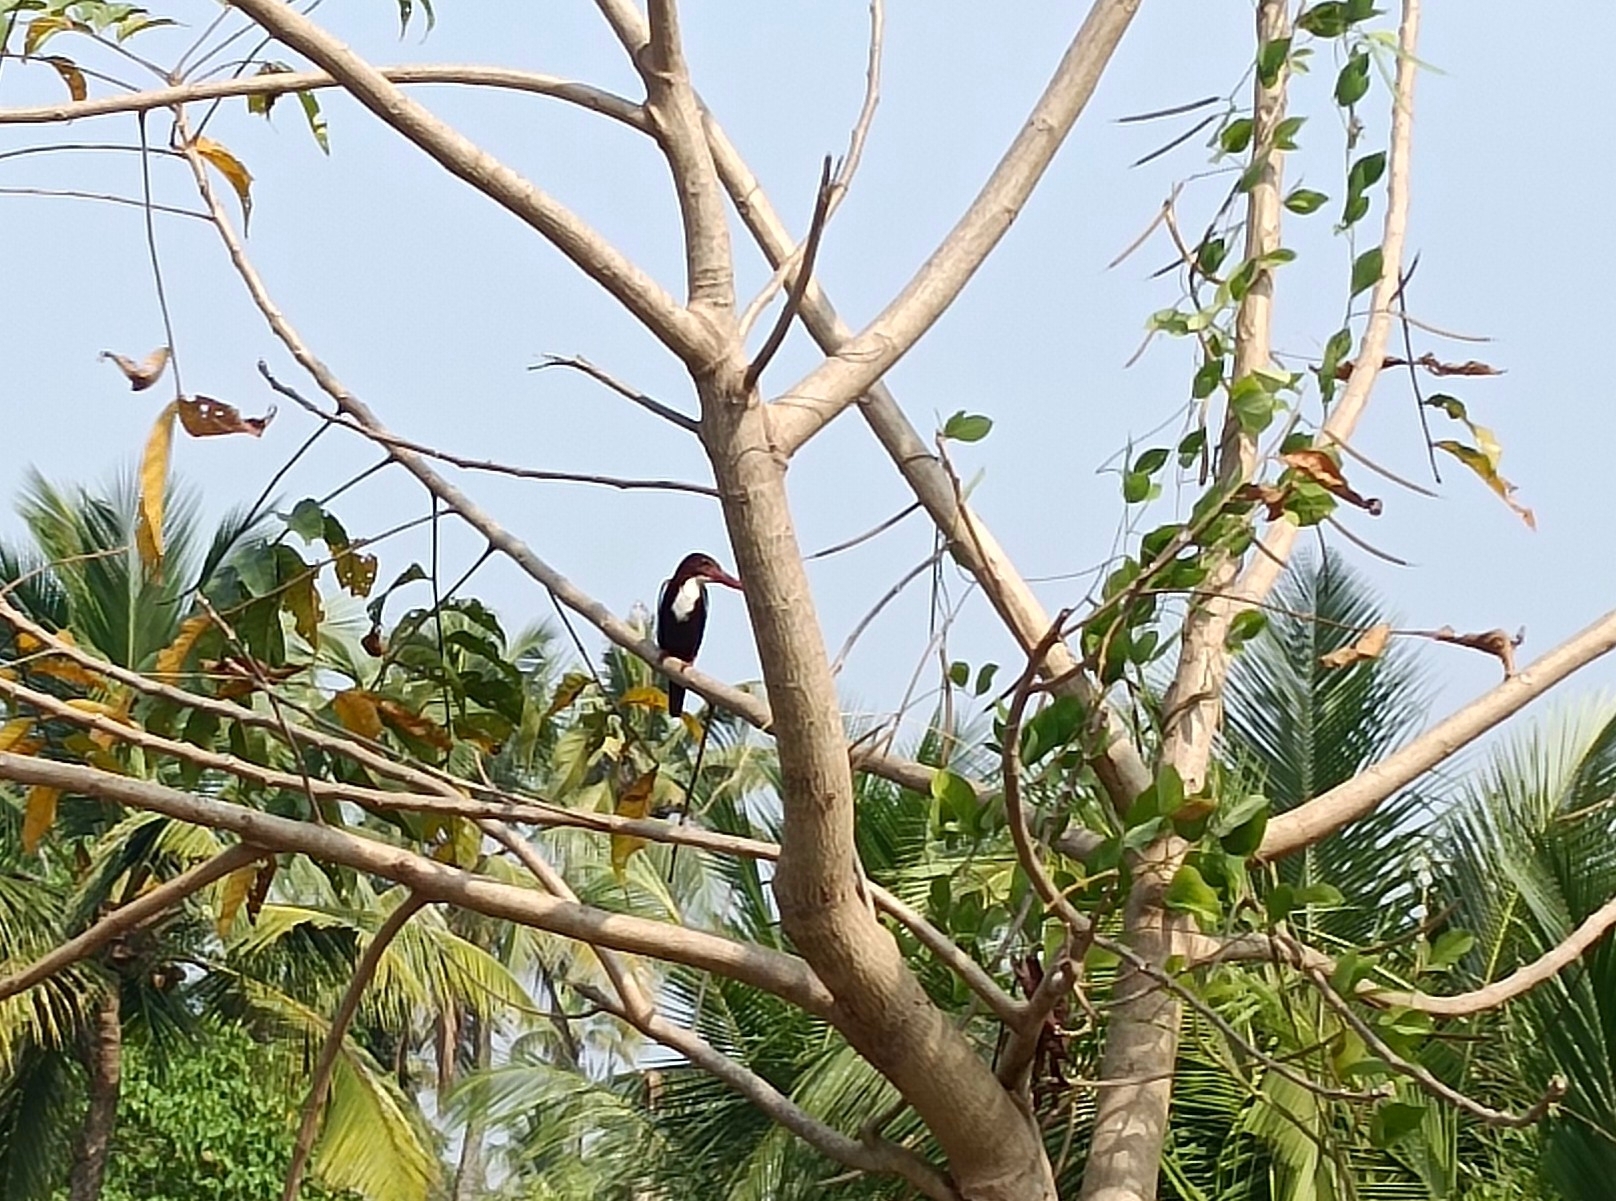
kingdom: Animalia
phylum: Chordata
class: Aves
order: Coraciiformes
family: Alcedinidae
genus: Halcyon
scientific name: Halcyon smyrnensis
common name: White-throated kingfisher
